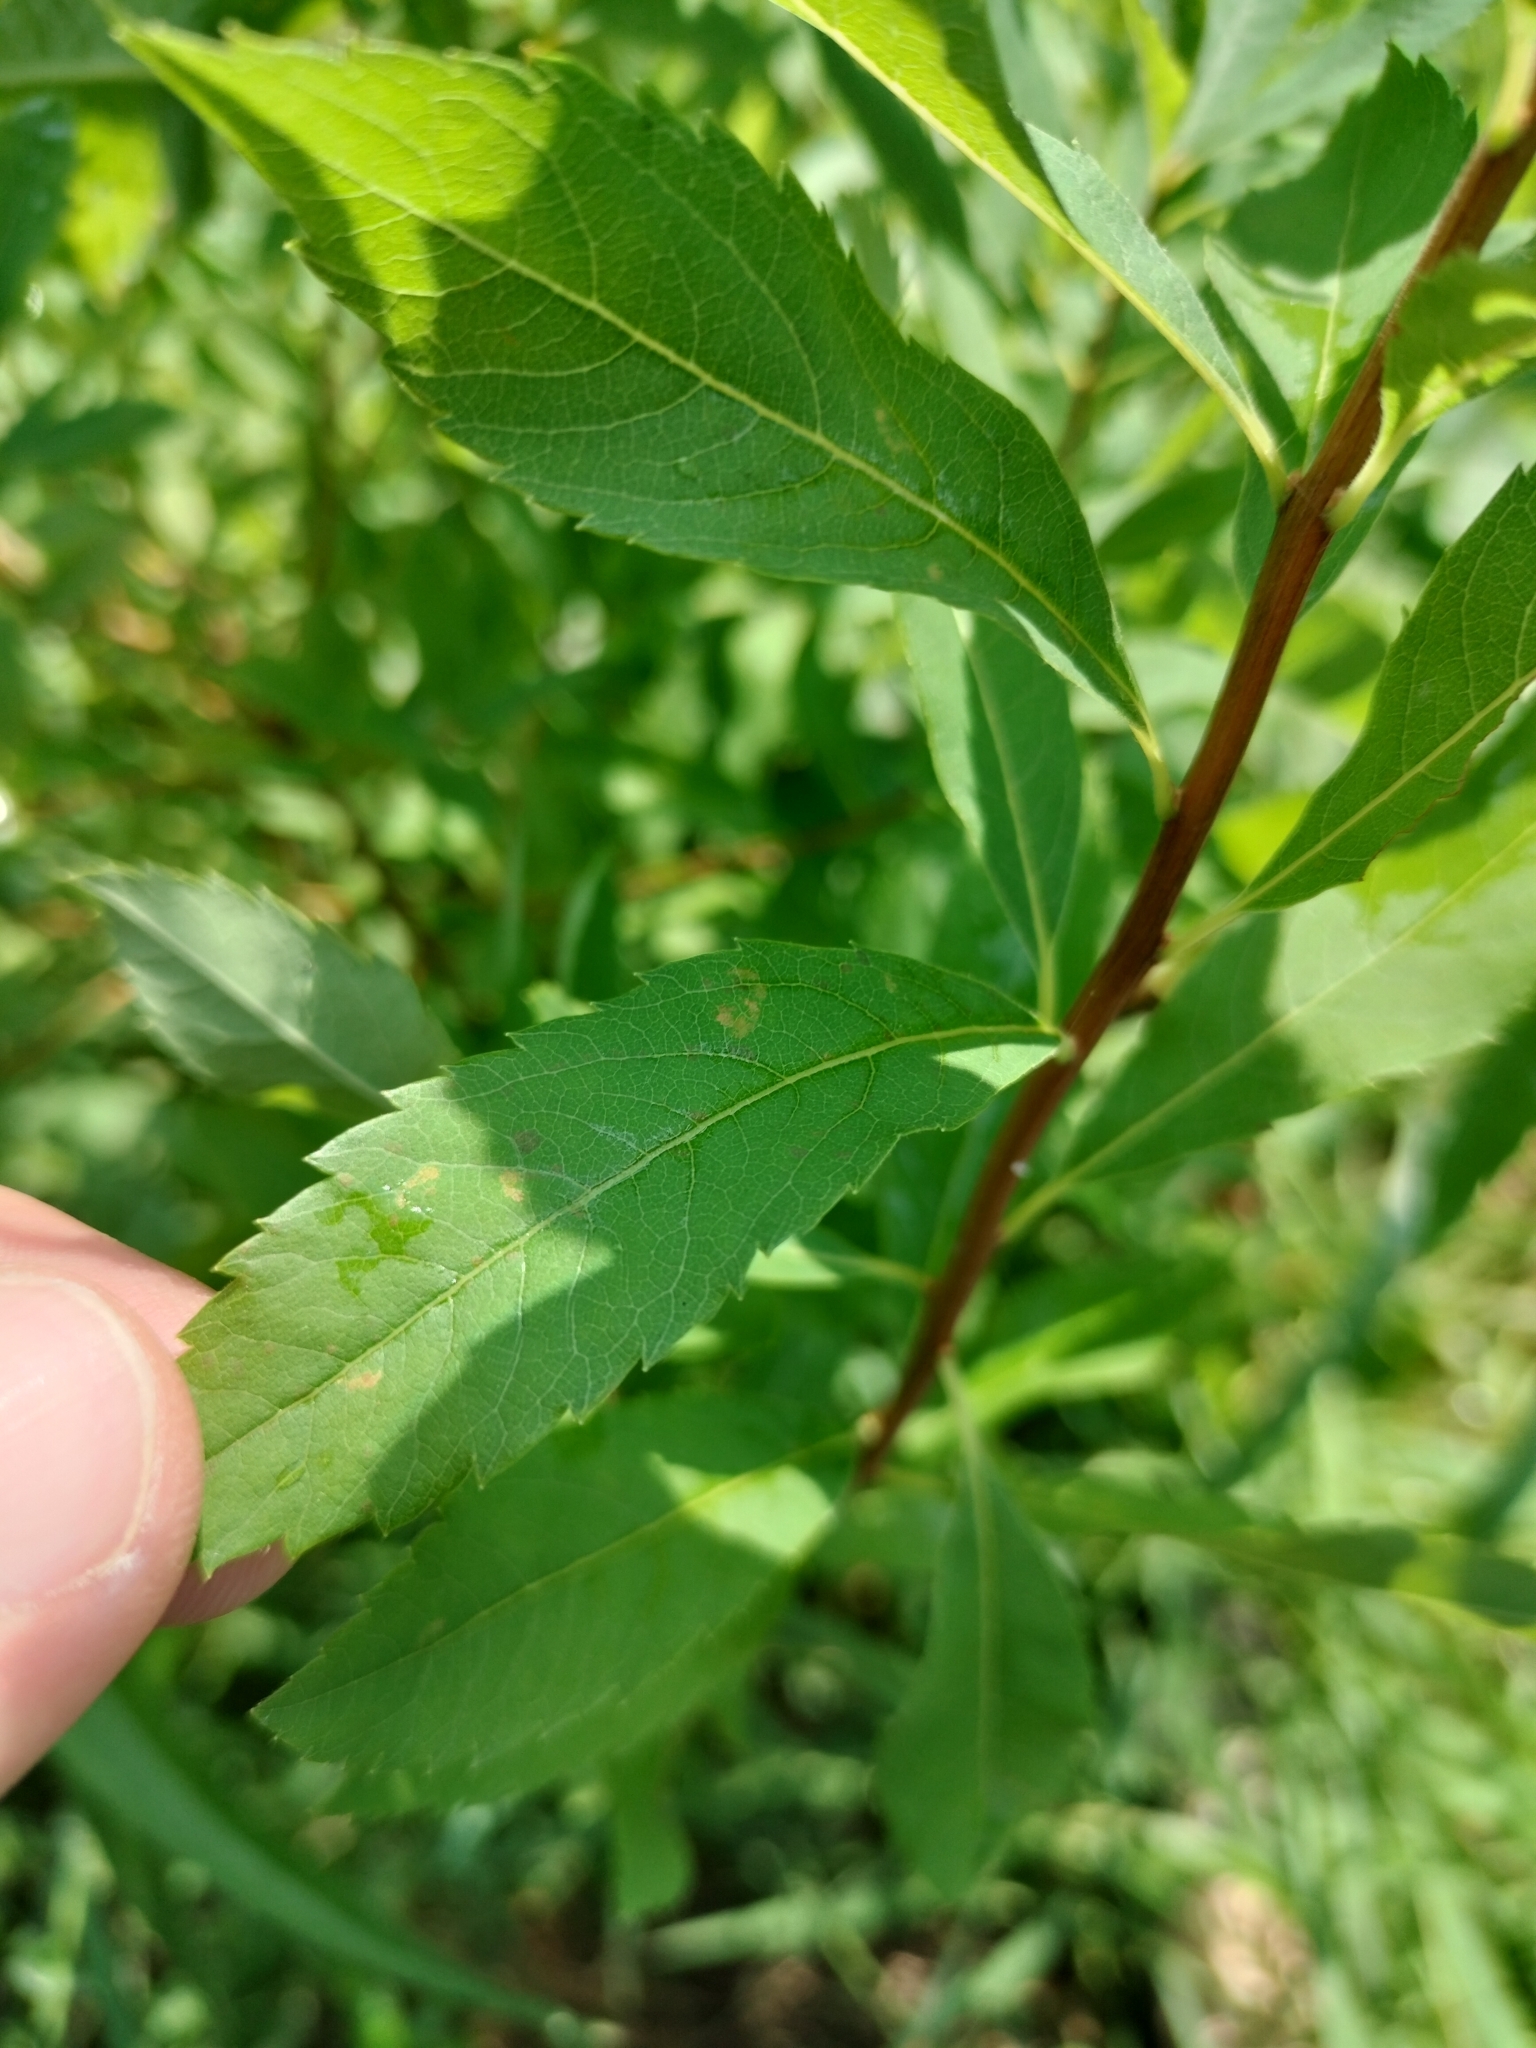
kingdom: Plantae
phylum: Tracheophyta
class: Magnoliopsida
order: Rosales
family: Rosaceae
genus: Spiraea
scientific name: Spiraea alba
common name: Pale bridewort
